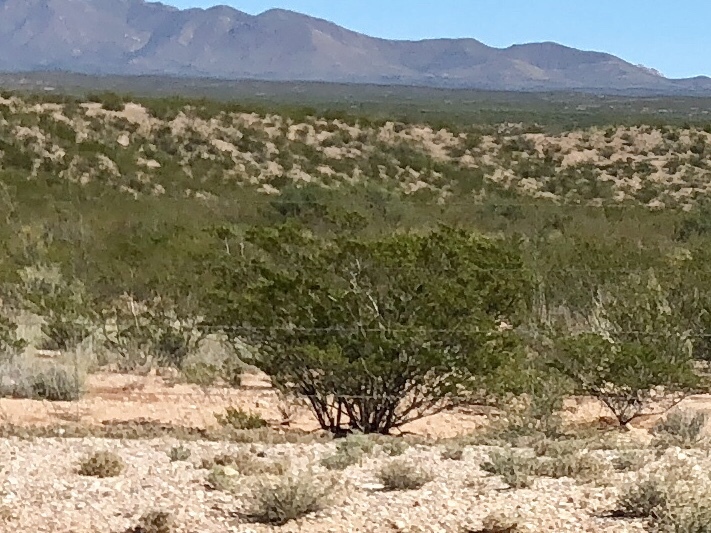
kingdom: Plantae
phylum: Tracheophyta
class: Magnoliopsida
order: Zygophyllales
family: Zygophyllaceae
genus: Larrea
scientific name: Larrea tridentata
